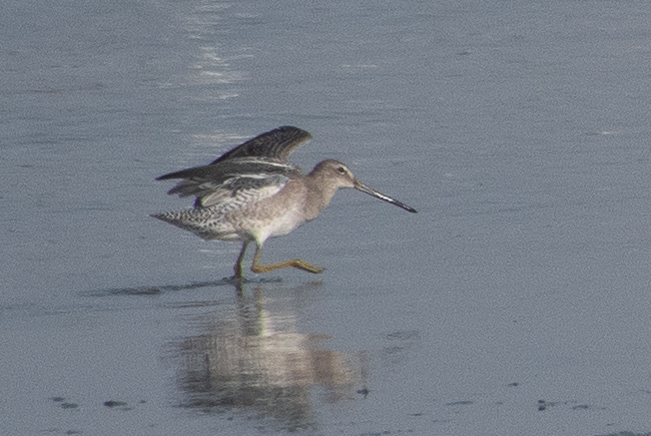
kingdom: Animalia
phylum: Chordata
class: Aves
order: Charadriiformes
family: Scolopacidae
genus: Limnodromus
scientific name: Limnodromus scolopaceus
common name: Long-billed dowitcher
